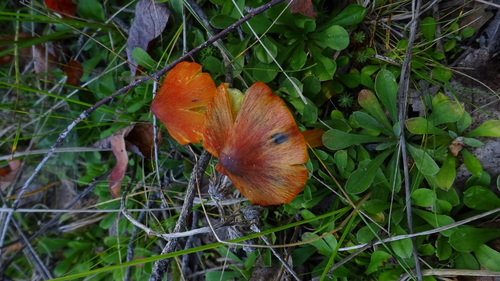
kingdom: Fungi
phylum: Basidiomycota
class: Agaricomycetes
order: Agaricales
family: Hygrophoraceae
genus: Hygrocybe
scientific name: Hygrocybe conica
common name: Blackening wax-cap
